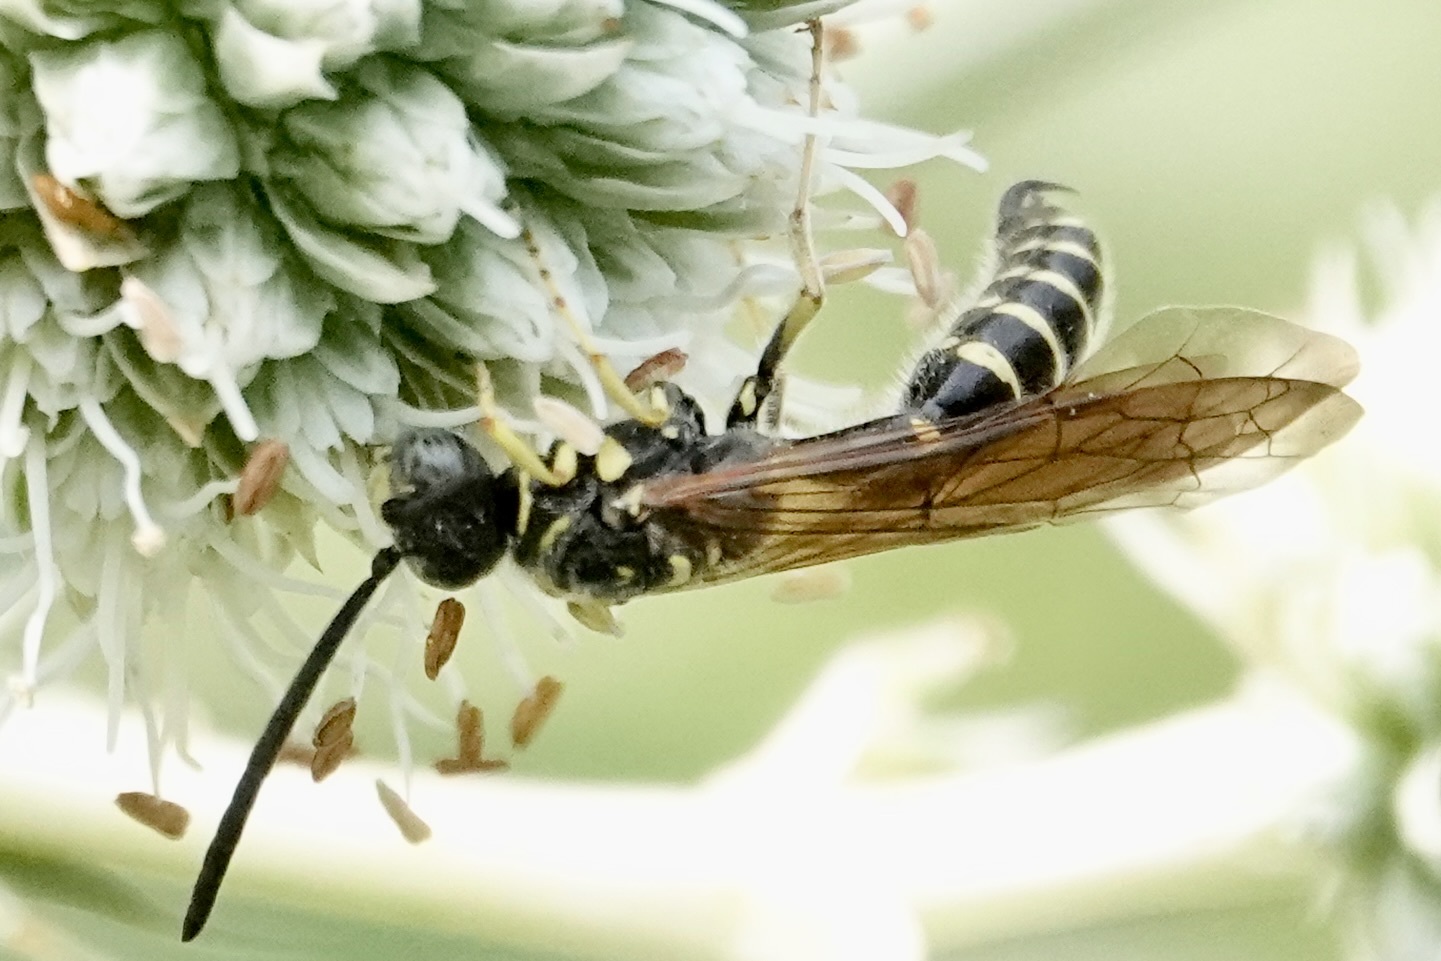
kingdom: Animalia
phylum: Arthropoda
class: Insecta
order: Hymenoptera
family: Tiphiidae
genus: Myzinum
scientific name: Myzinum quinquecinctum
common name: Five-banded thynnid wasp
